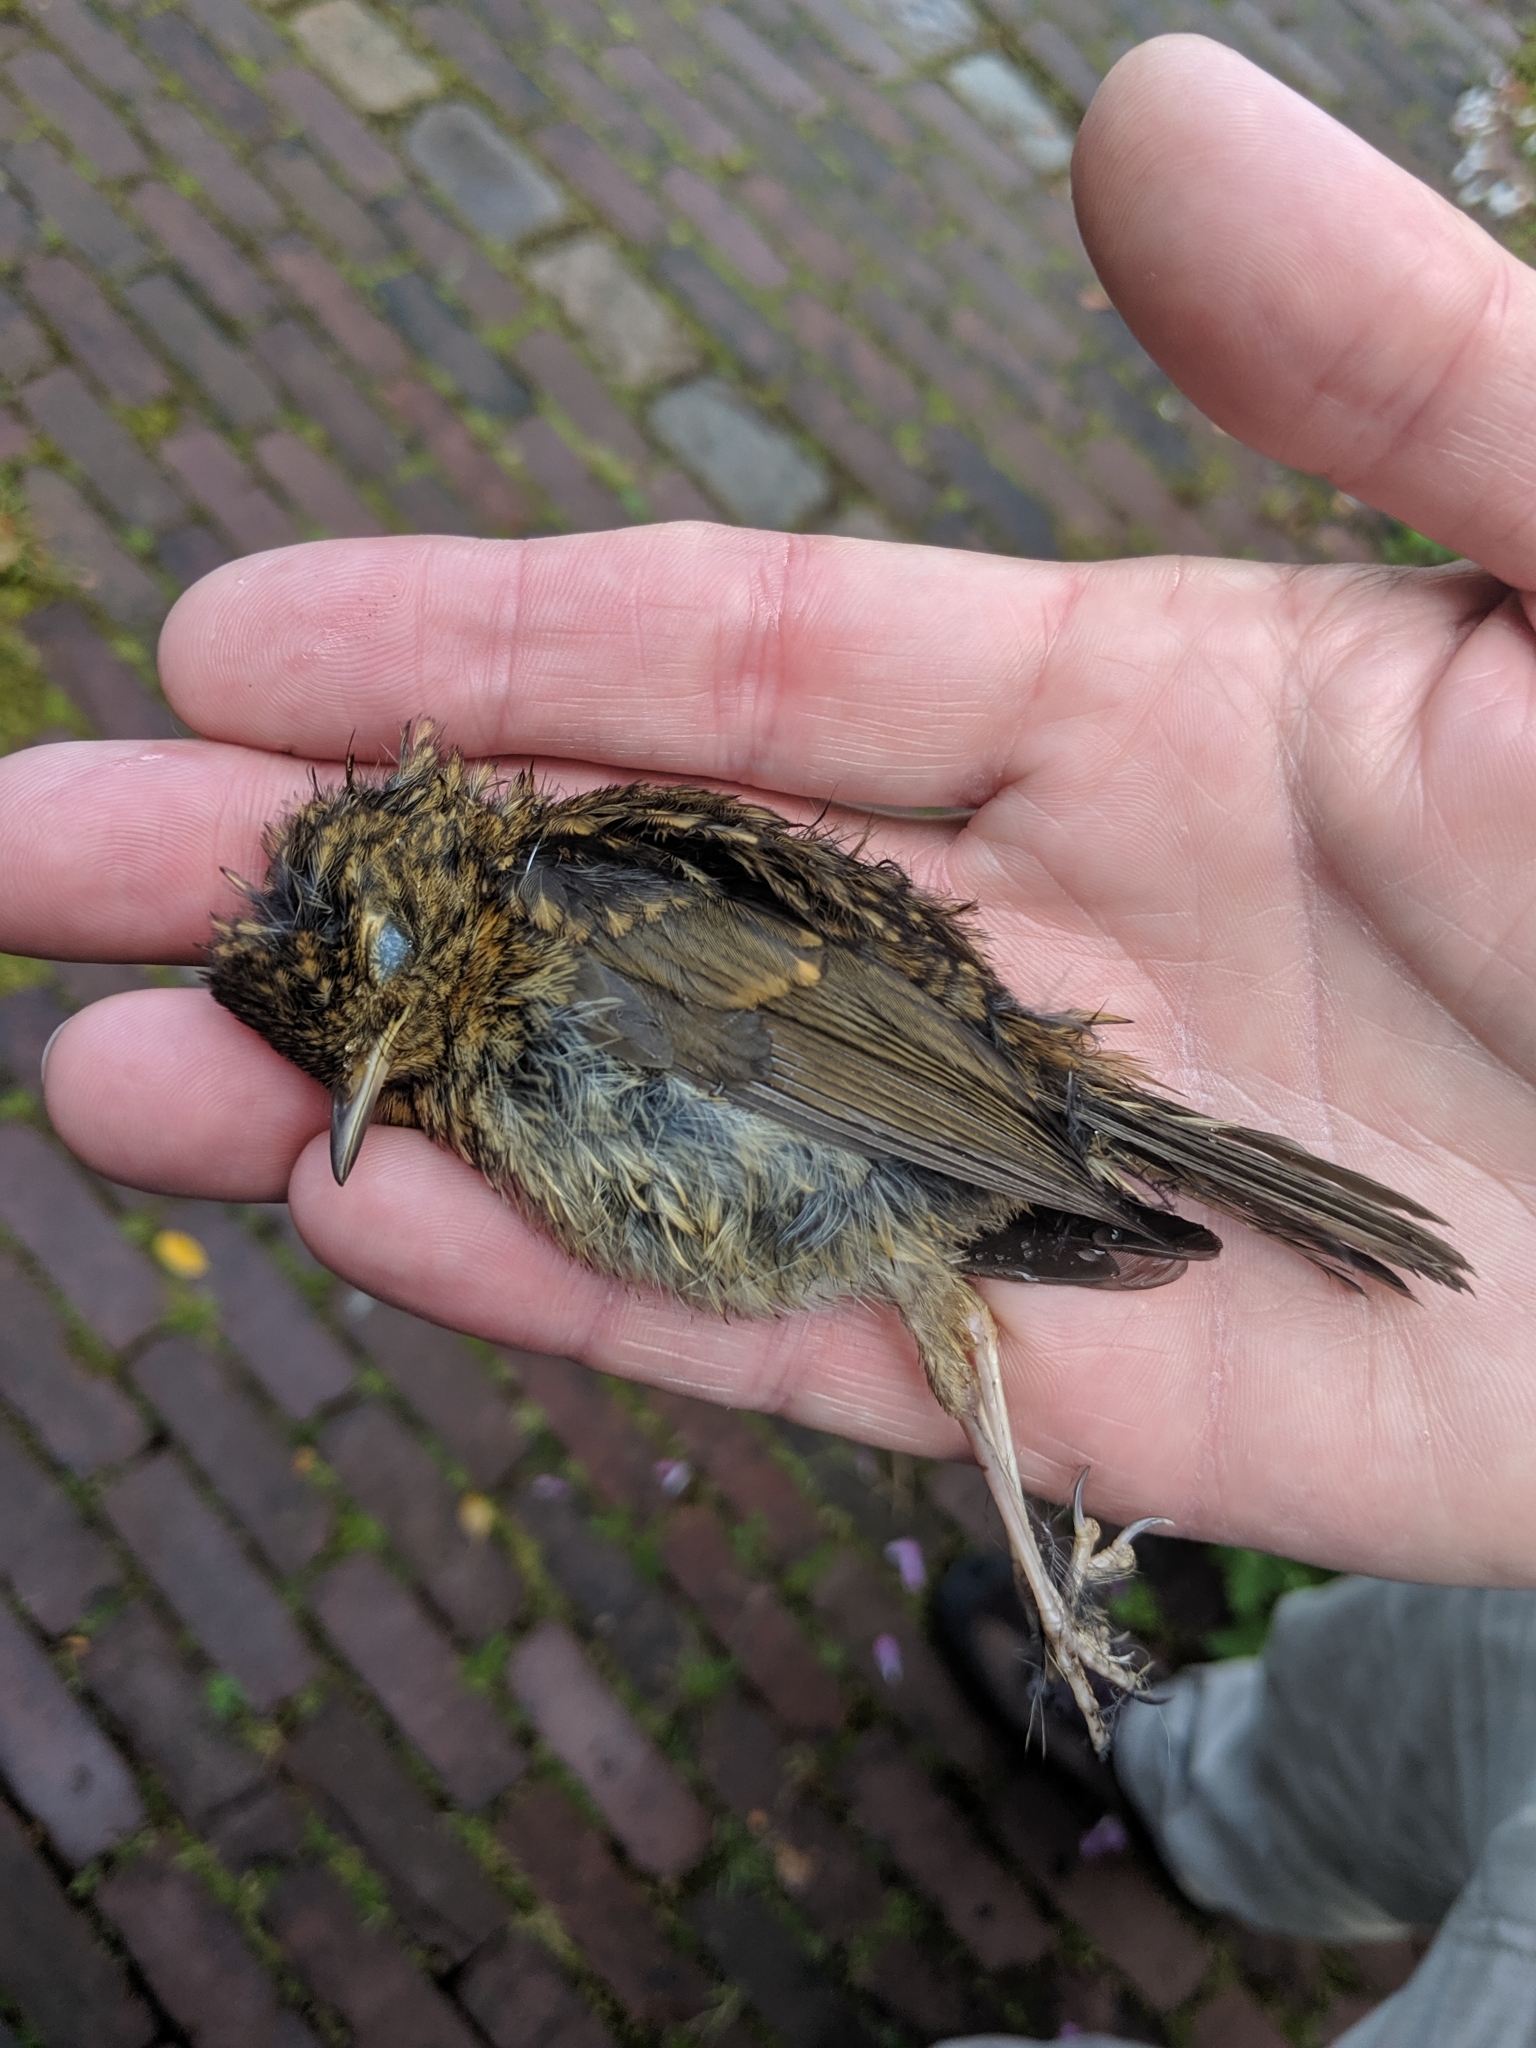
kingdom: Animalia
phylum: Chordata
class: Aves
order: Passeriformes
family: Muscicapidae
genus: Erithacus
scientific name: Erithacus rubecula
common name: European robin
